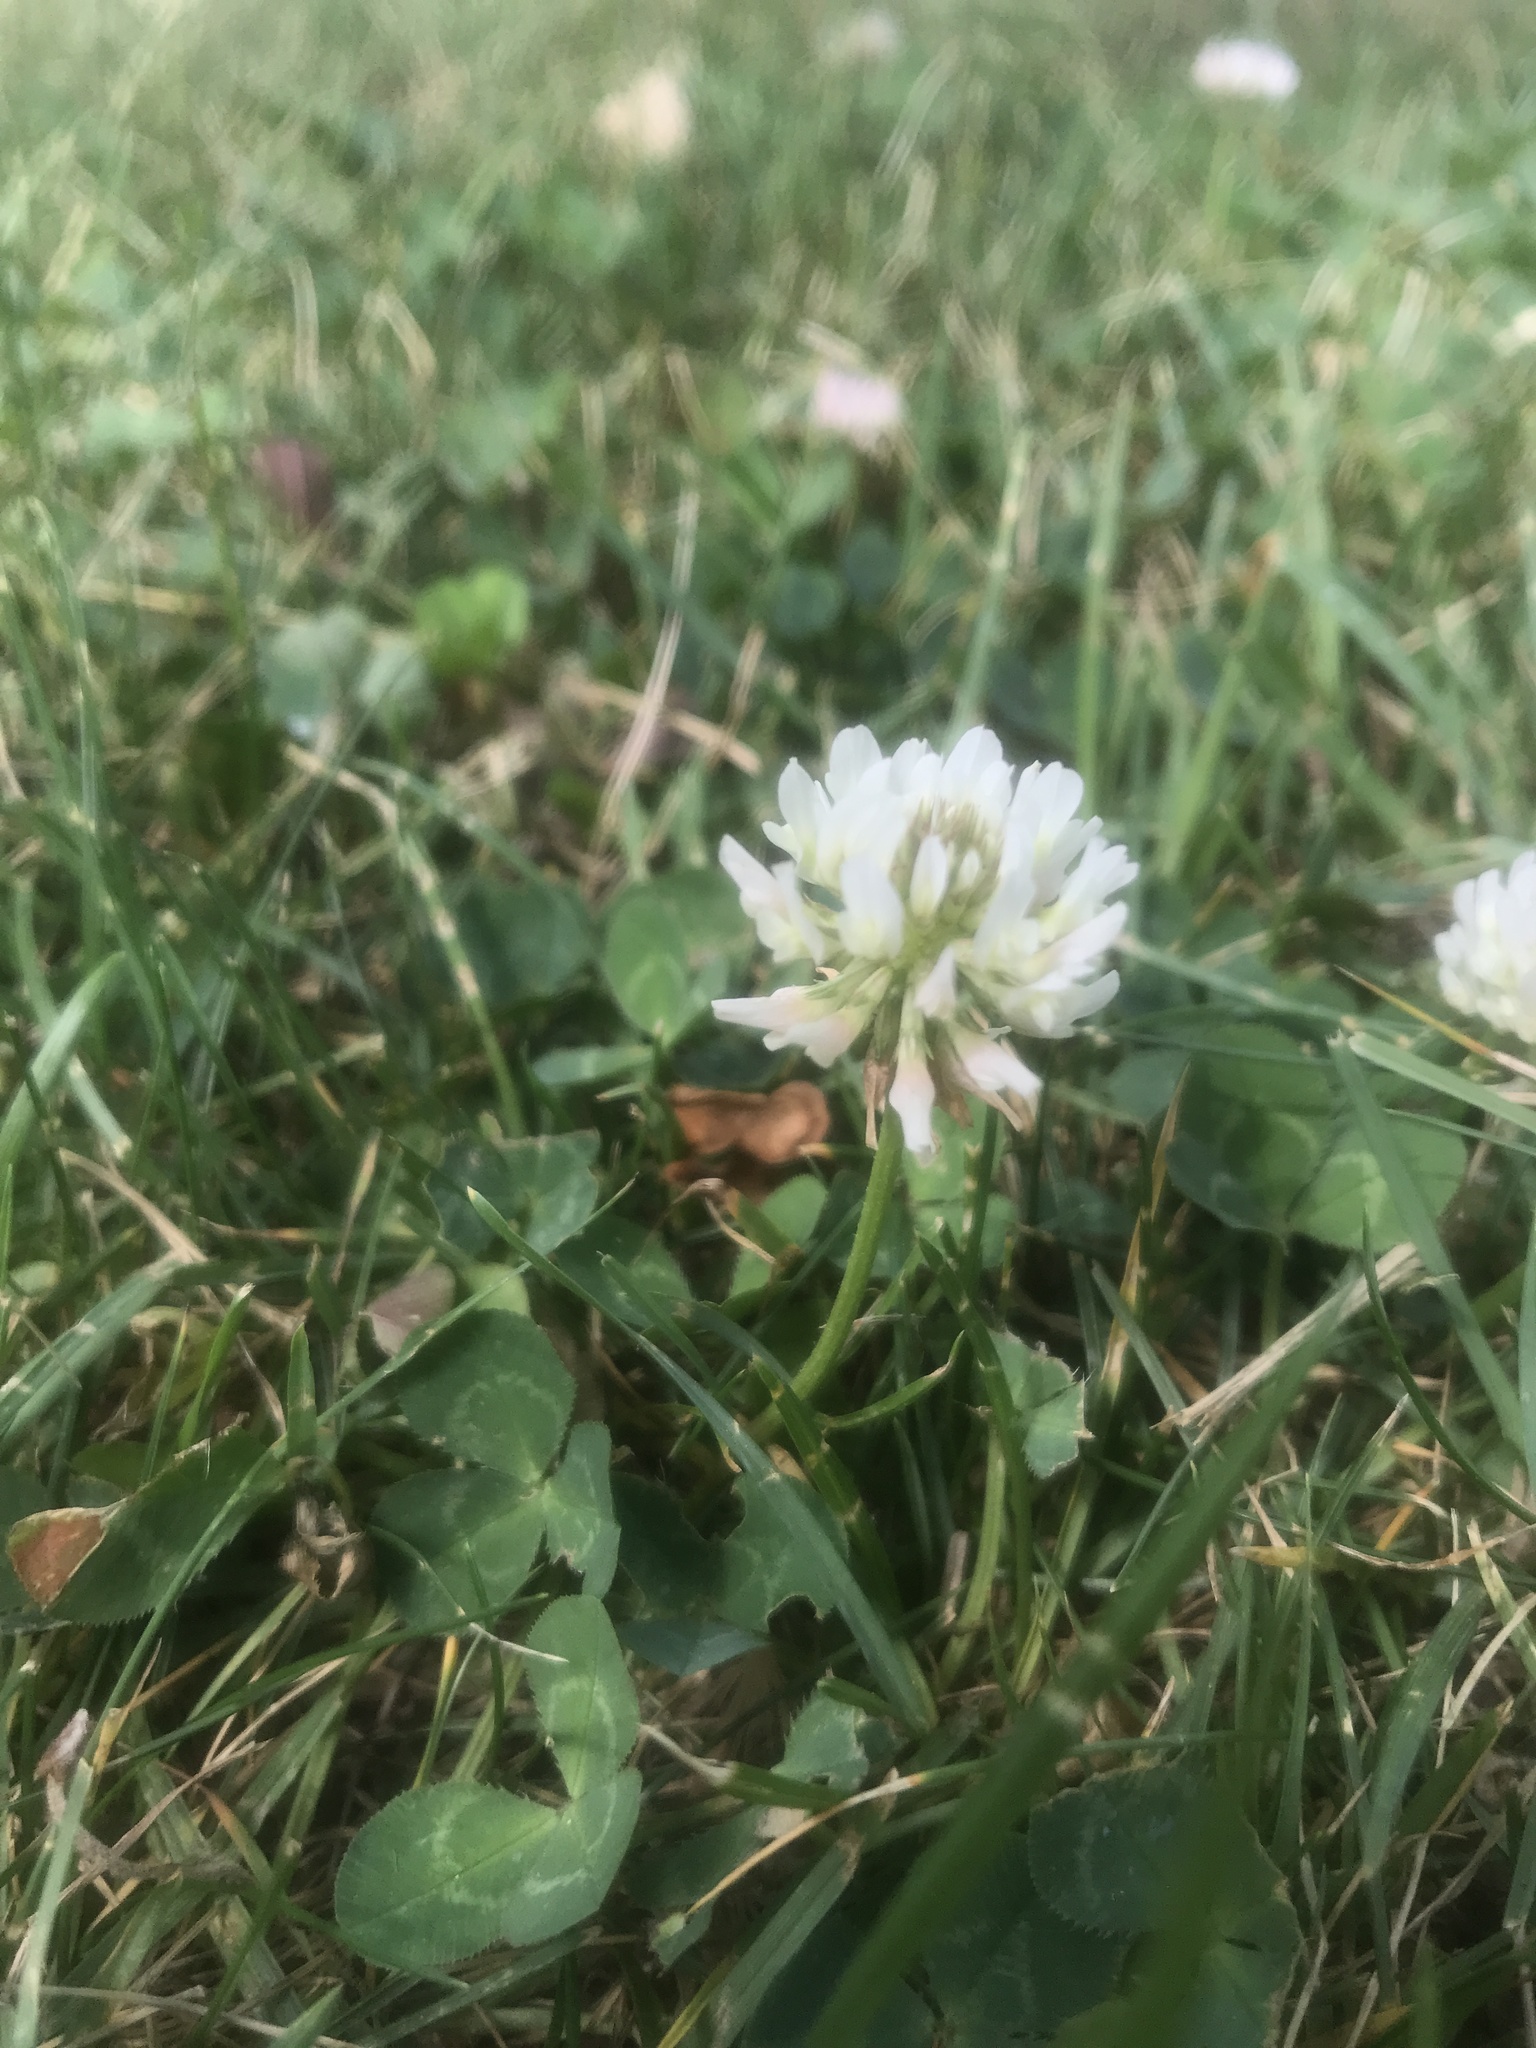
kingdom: Plantae
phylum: Tracheophyta
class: Magnoliopsida
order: Fabales
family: Fabaceae
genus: Trifolium
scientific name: Trifolium repens
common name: White clover
